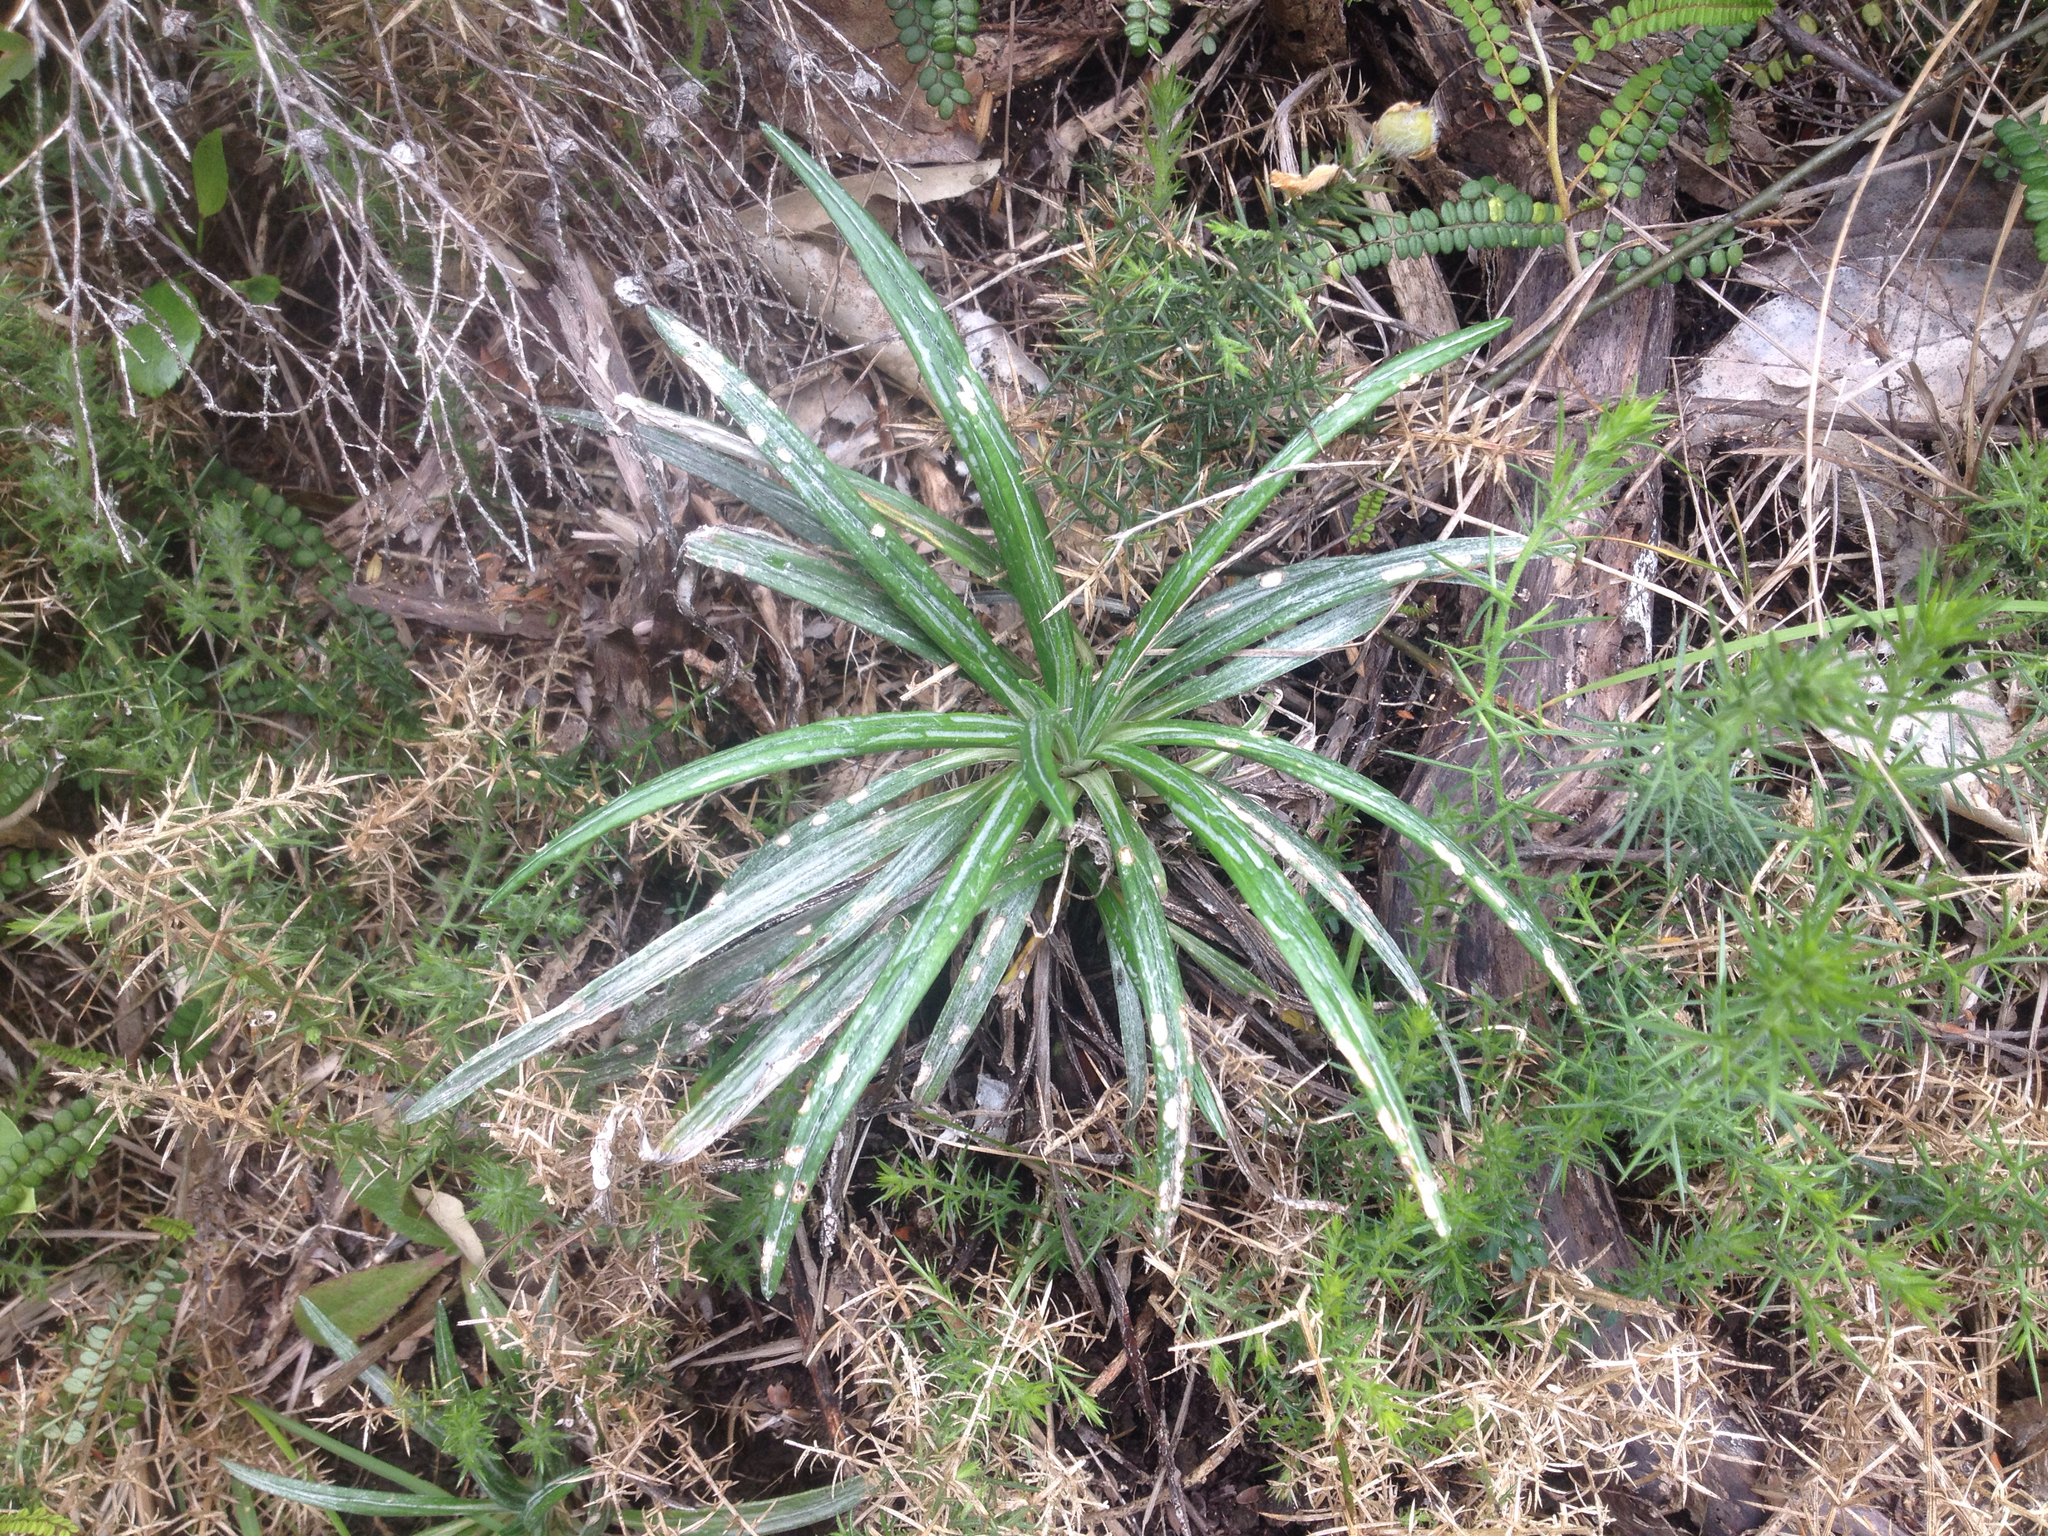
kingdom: Plantae
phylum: Tracheophyta
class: Magnoliopsida
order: Asterales
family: Asteraceae
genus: Celmisia
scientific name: Celmisia major
